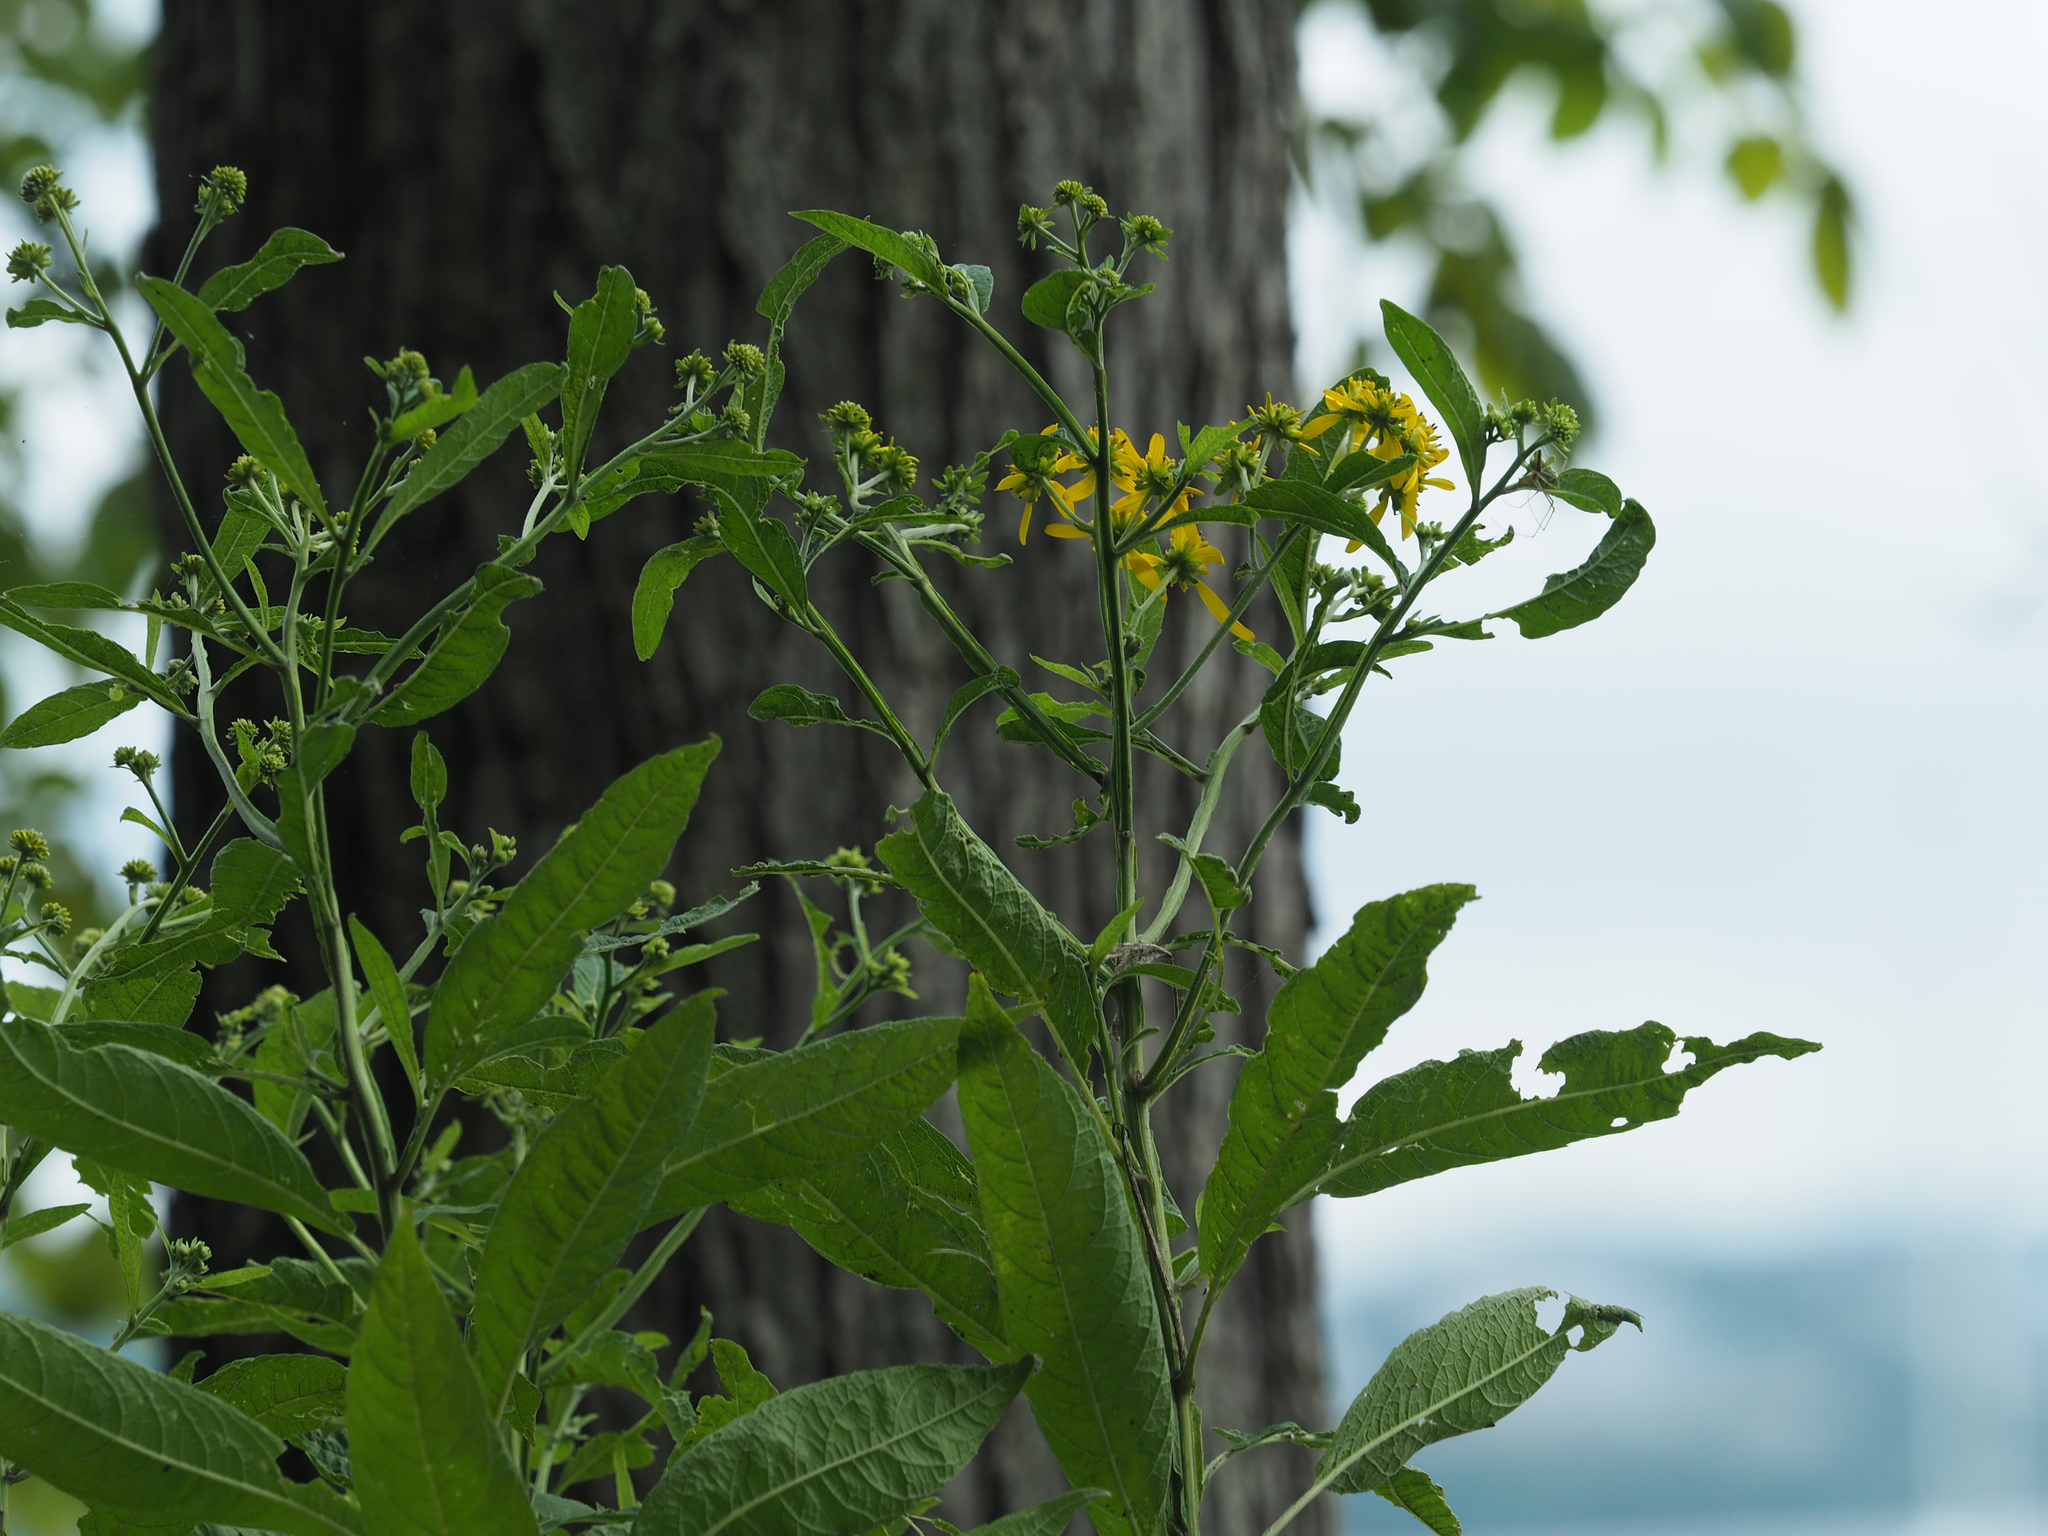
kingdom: Plantae
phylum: Tracheophyta
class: Magnoliopsida
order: Asterales
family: Asteraceae
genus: Verbesina
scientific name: Verbesina alternifolia
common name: Wingstem
